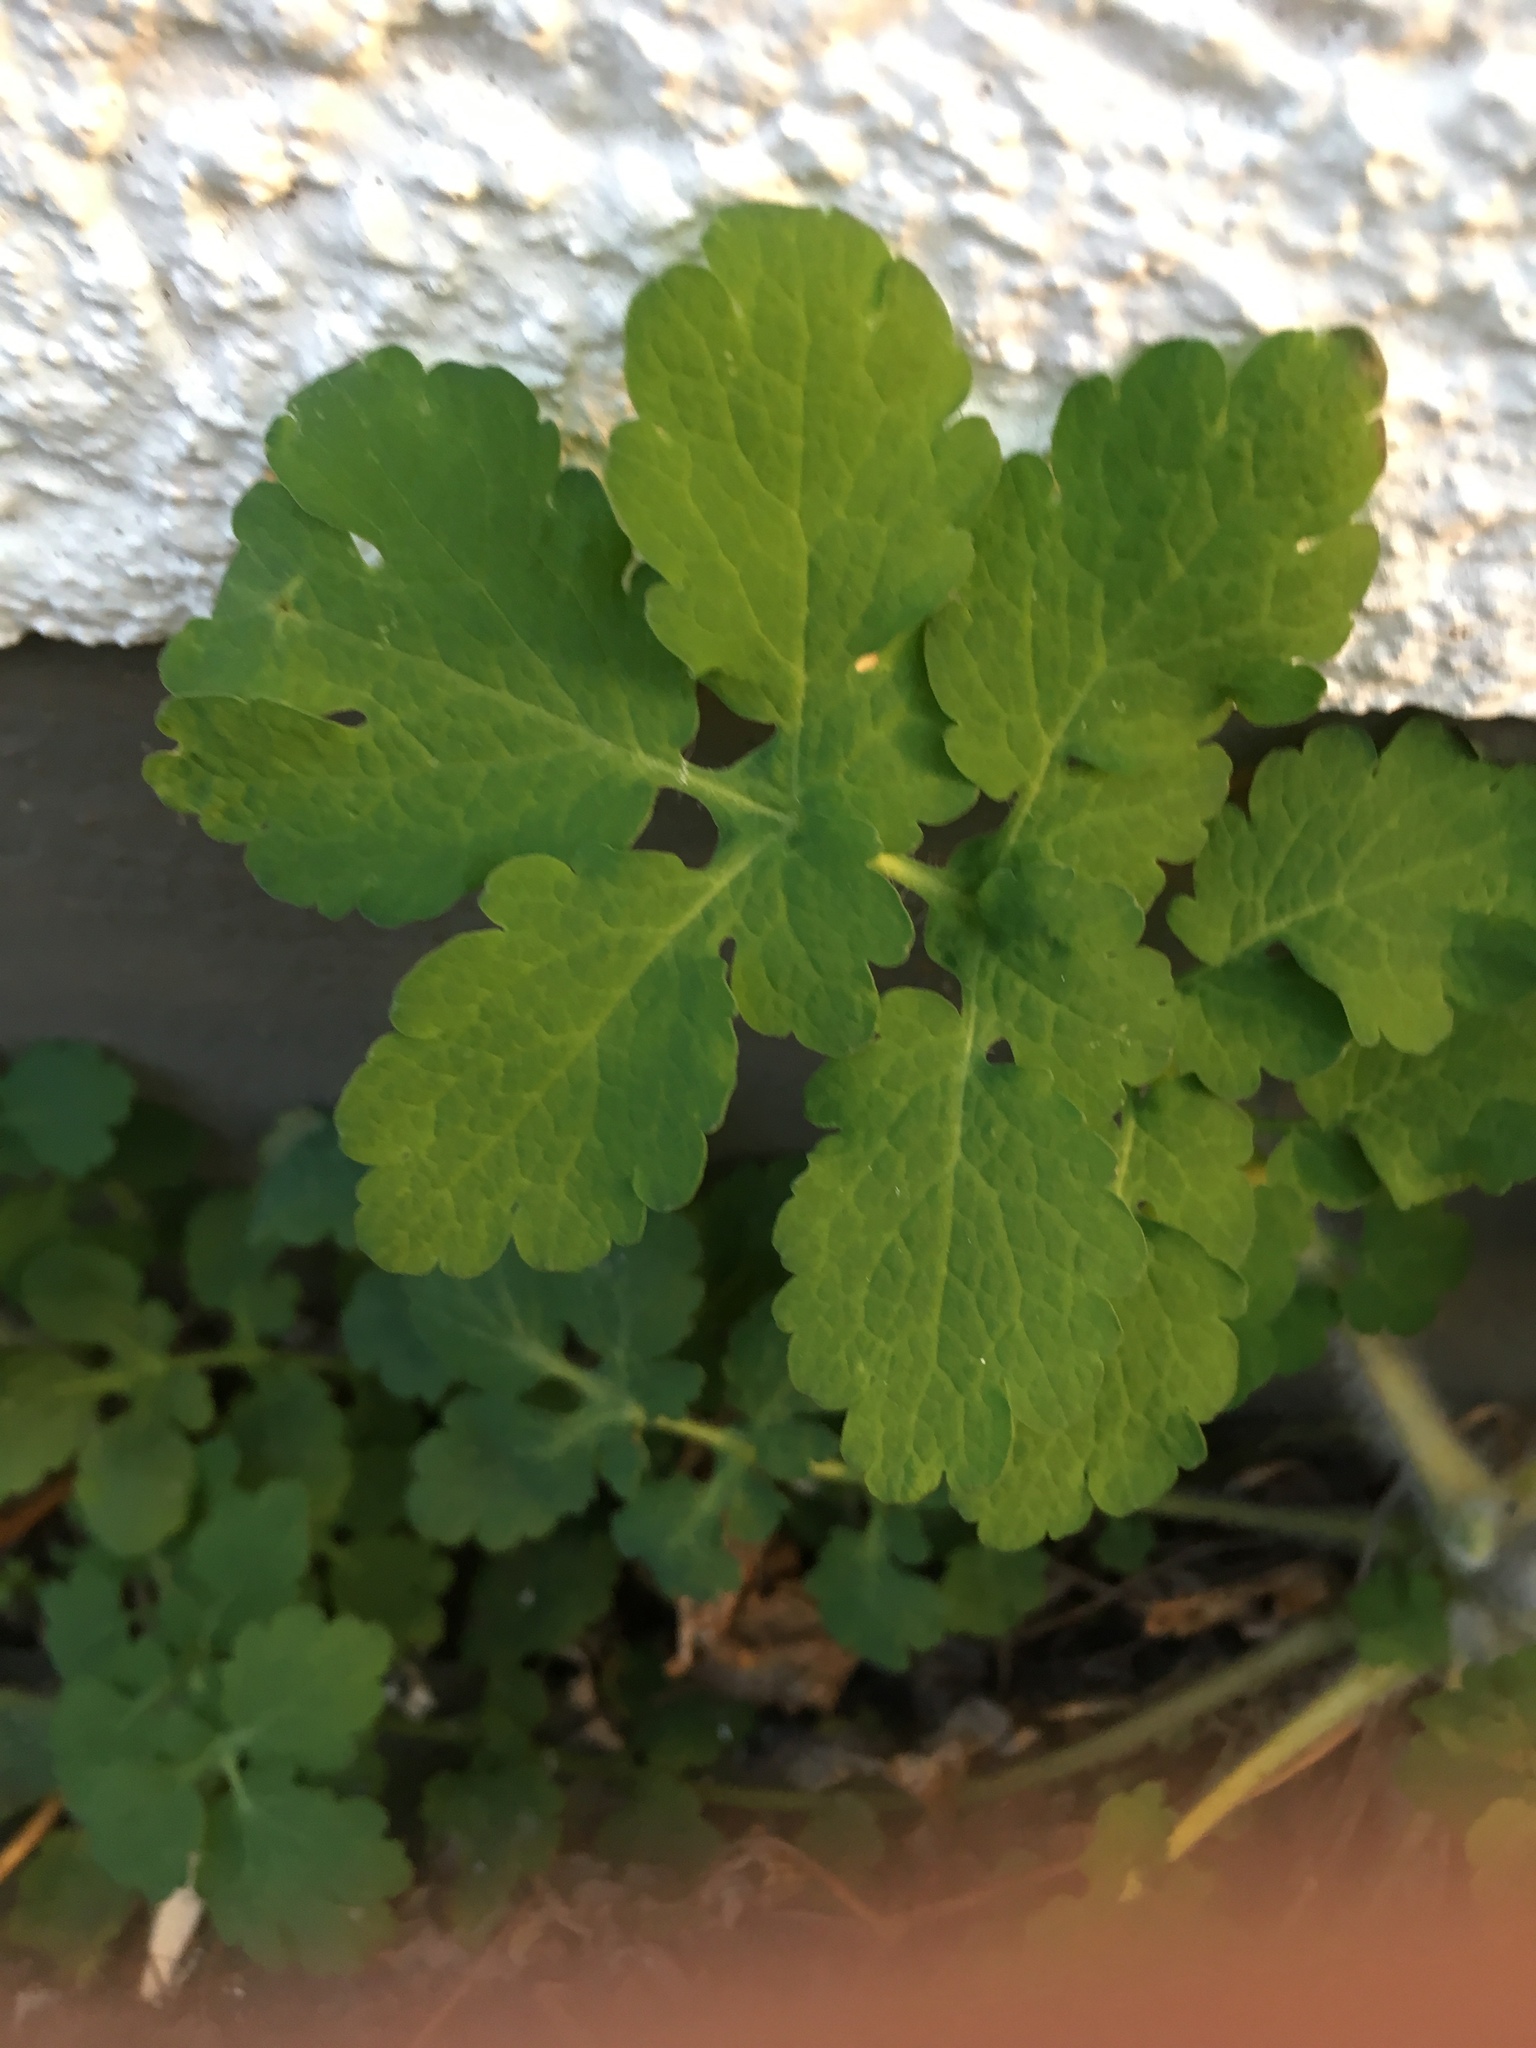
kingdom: Plantae
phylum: Tracheophyta
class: Magnoliopsida
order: Ranunculales
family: Papaveraceae
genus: Chelidonium
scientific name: Chelidonium majus
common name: Greater celandine
